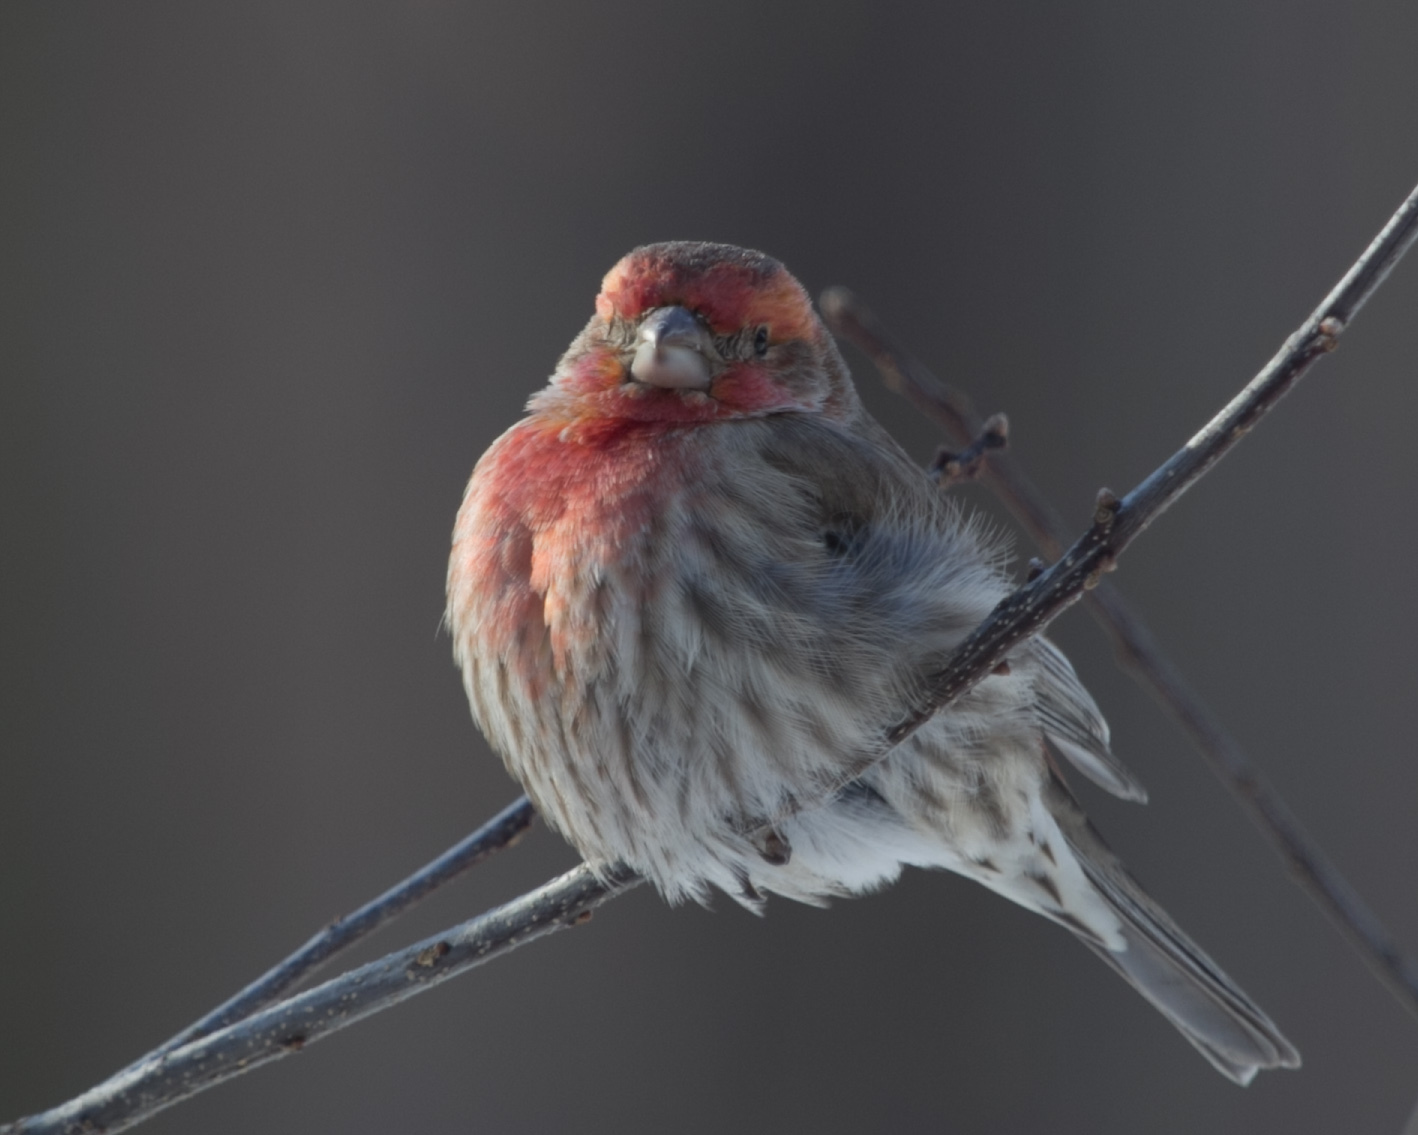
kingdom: Animalia
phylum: Chordata
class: Aves
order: Passeriformes
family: Fringillidae
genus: Haemorhous
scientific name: Haemorhous mexicanus
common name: House finch
